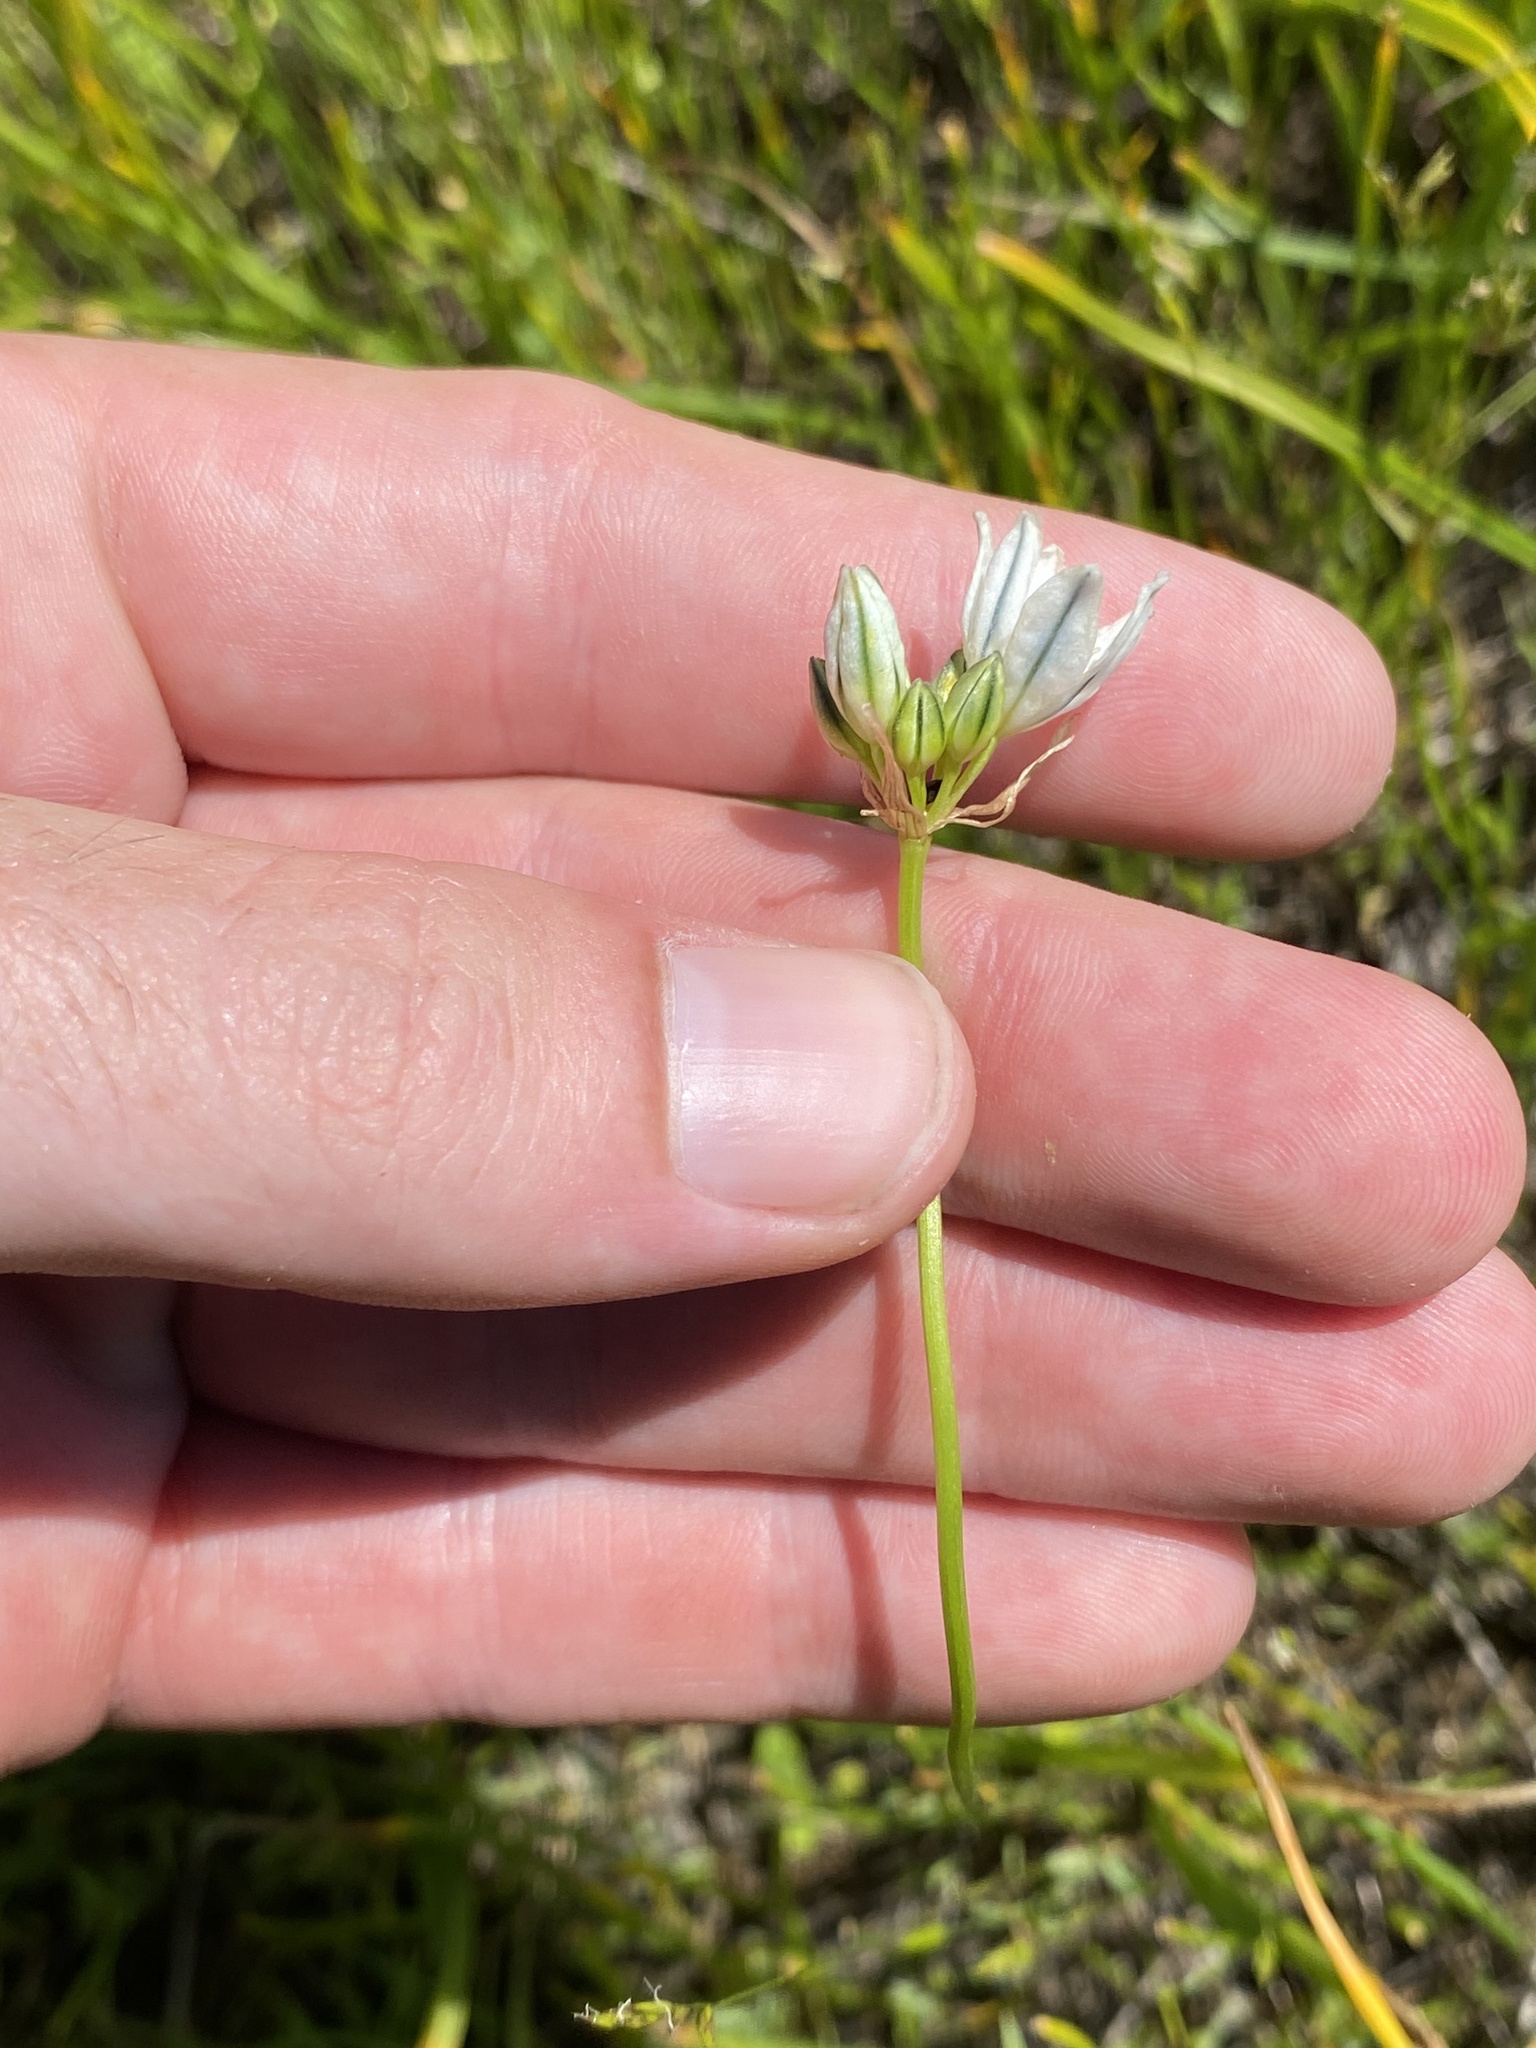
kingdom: Plantae
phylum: Tracheophyta
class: Liliopsida
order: Asparagales
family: Asparagaceae
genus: Triteleia
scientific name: Triteleia hyacinthina
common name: White brodiaea
